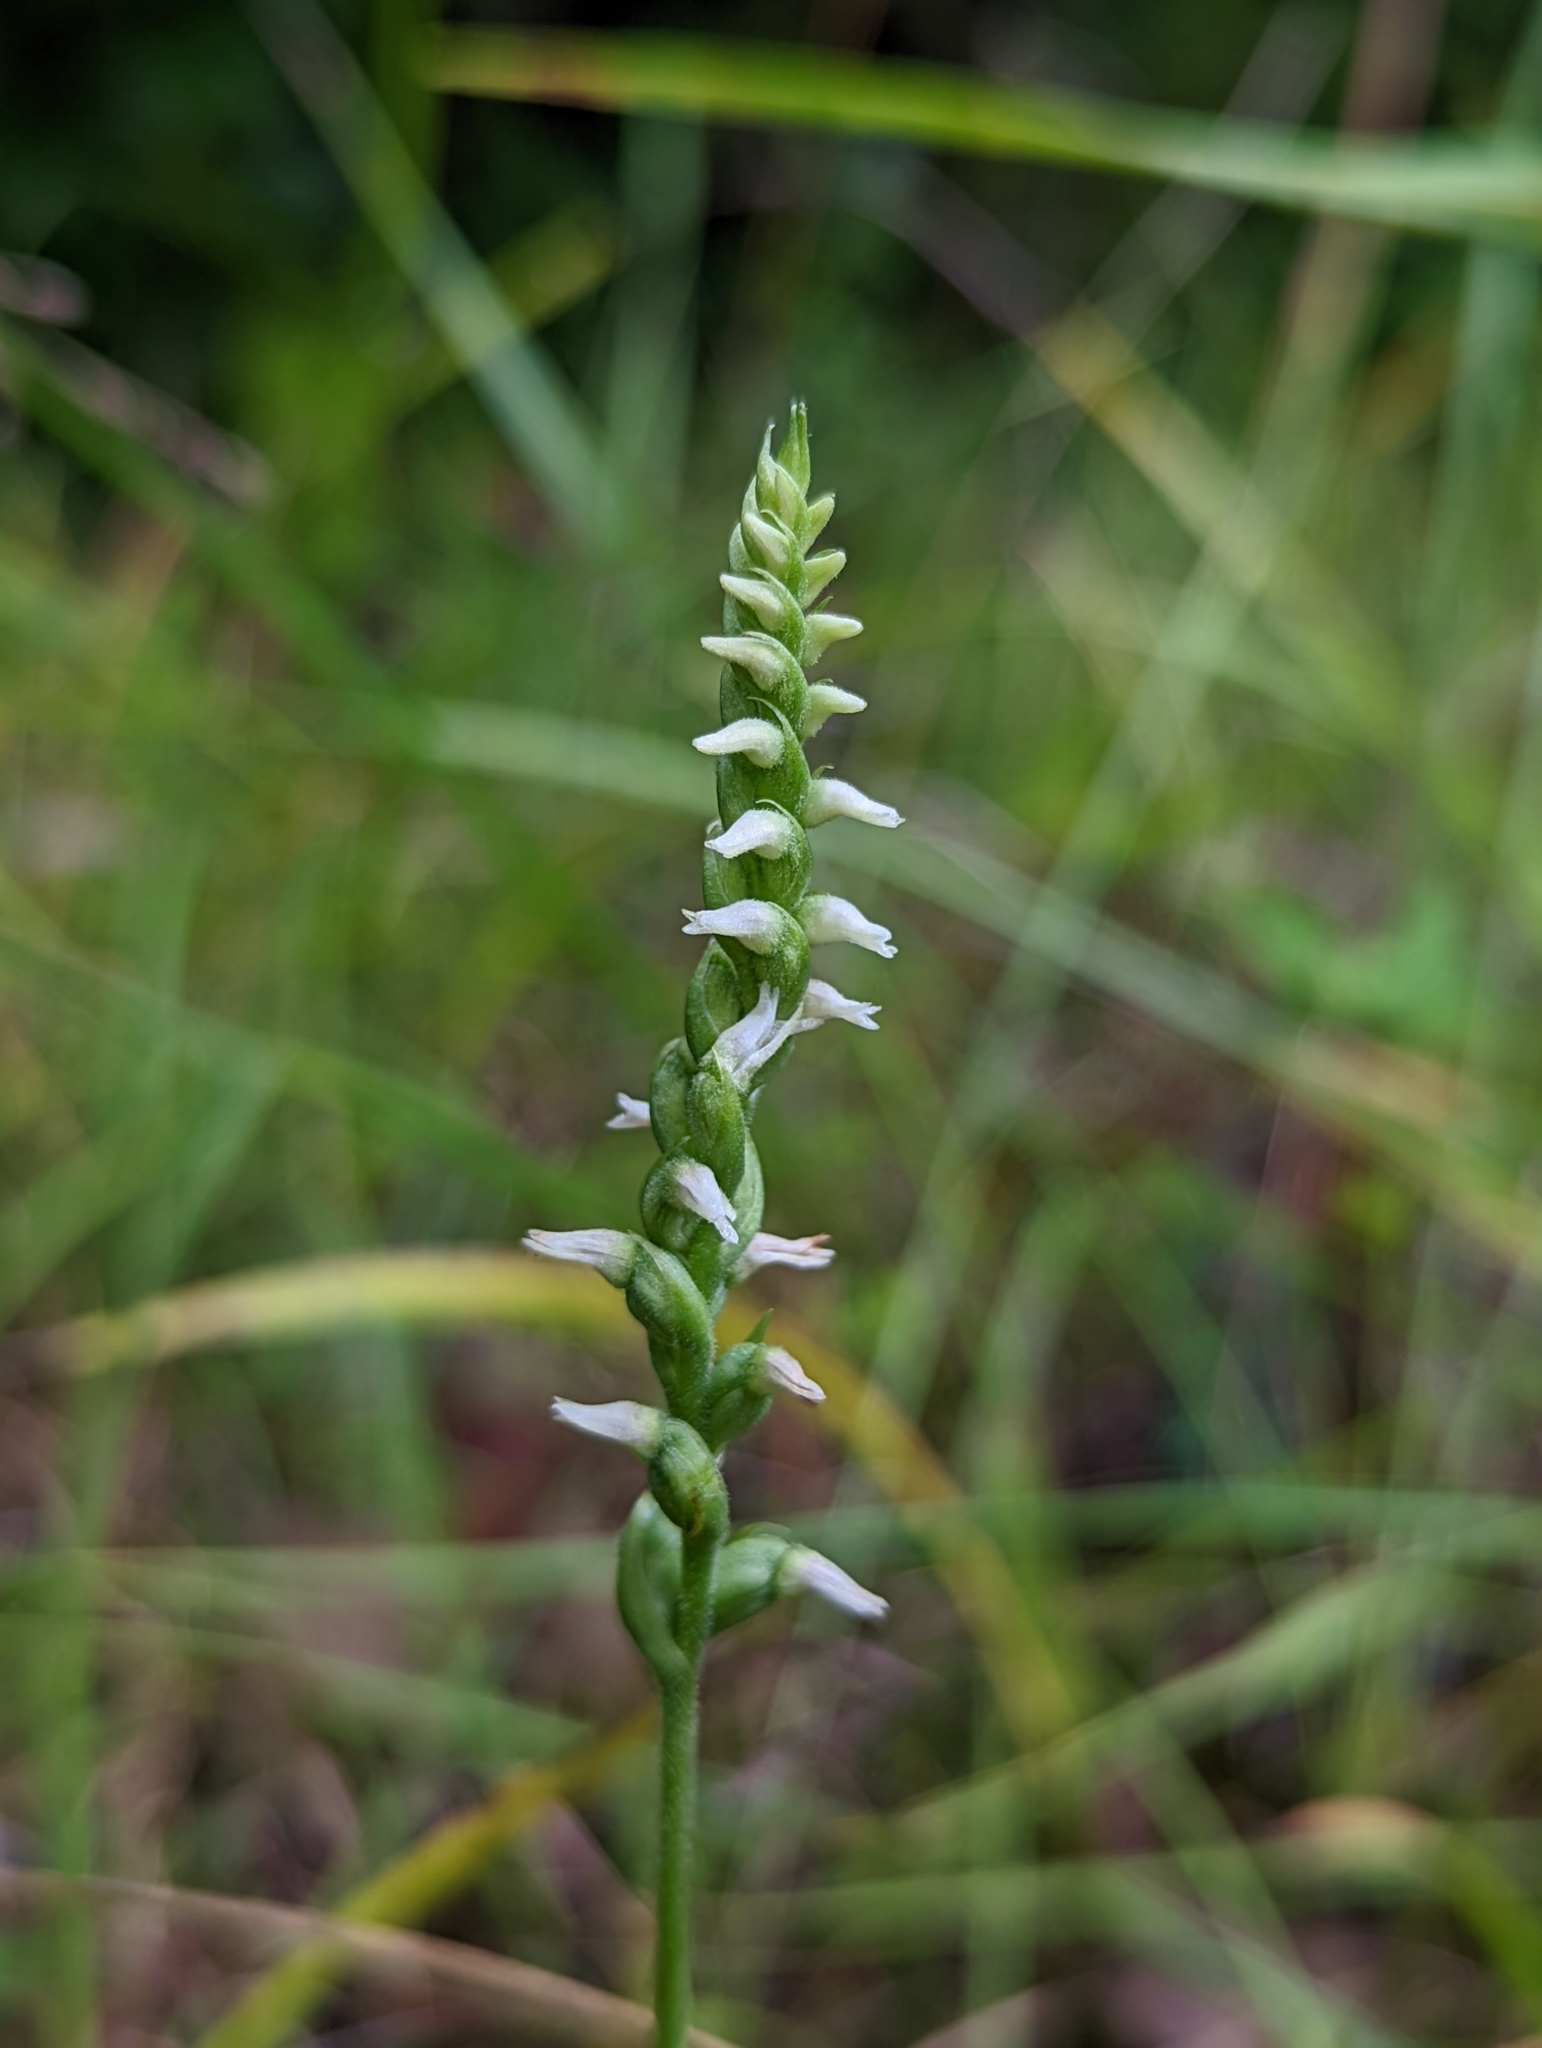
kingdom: Plantae
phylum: Tracheophyta
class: Liliopsida
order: Asparagales
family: Orchidaceae
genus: Spiranthes
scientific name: Spiranthes ovalis
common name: October ladies'-tresses
